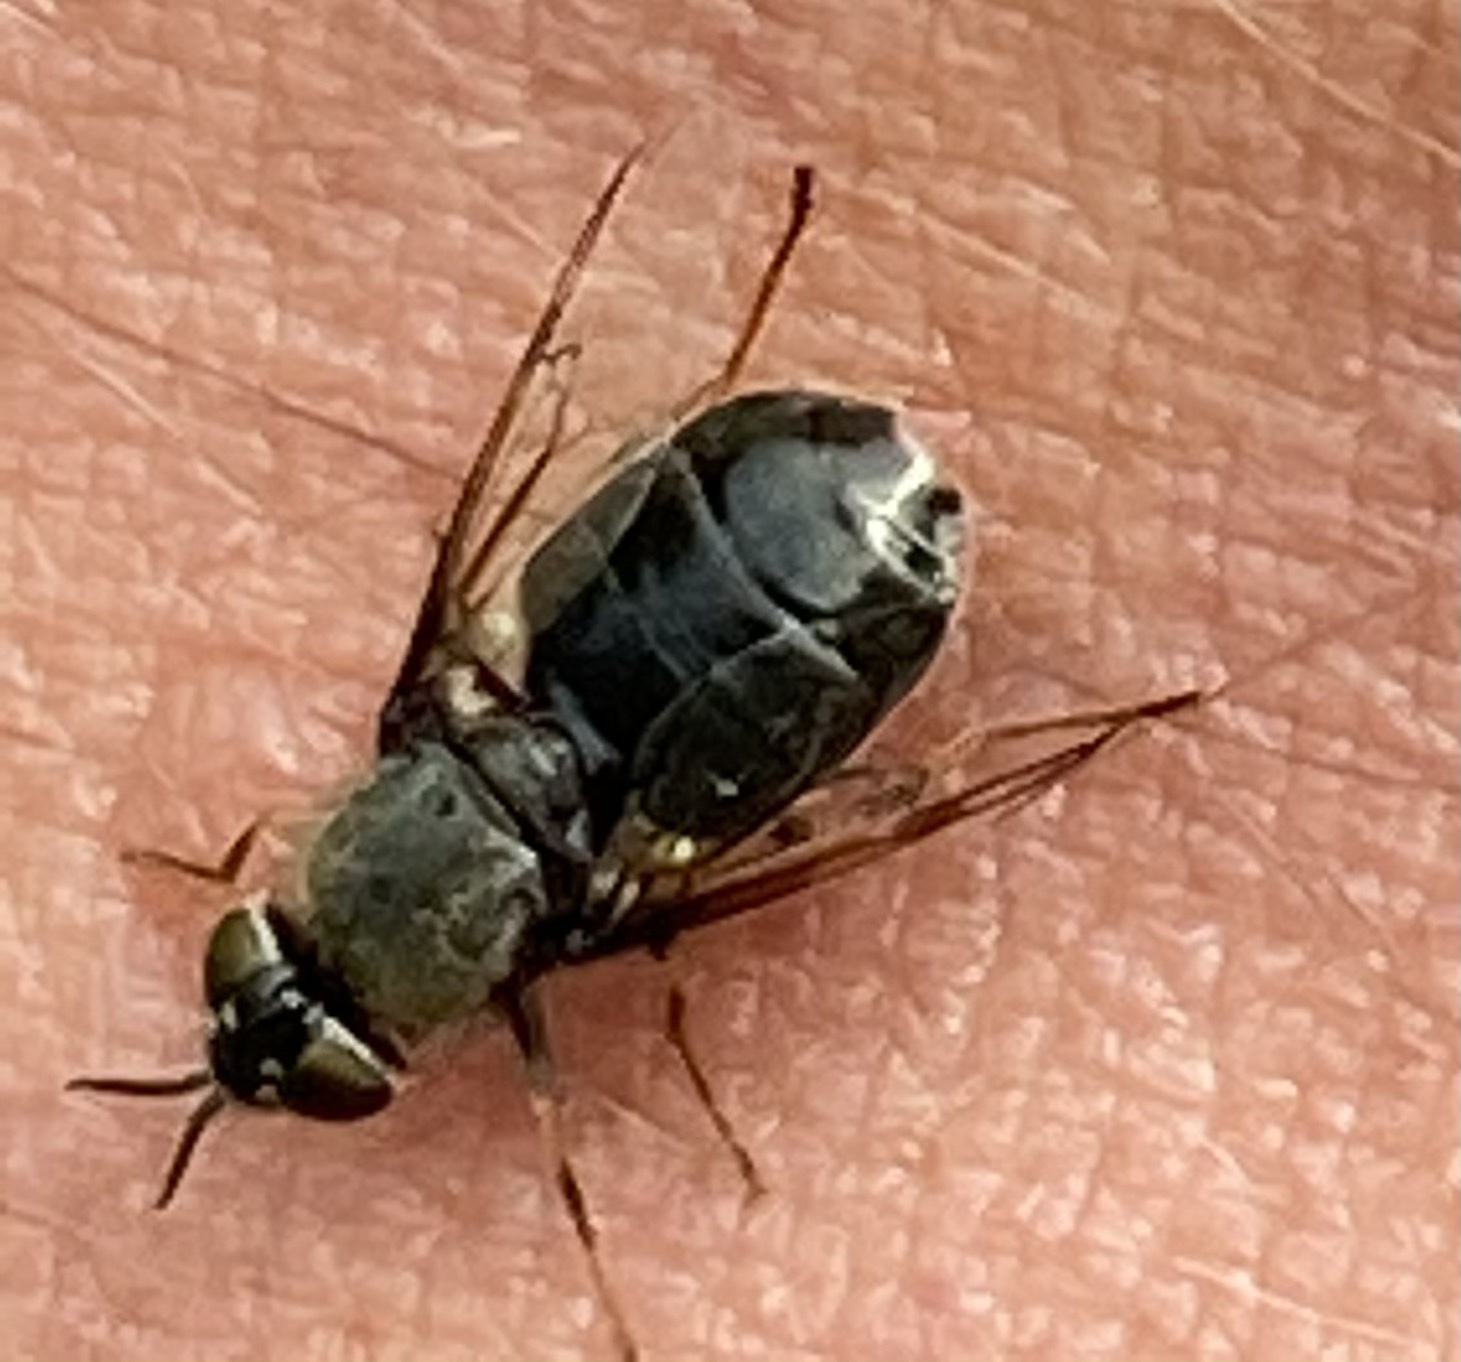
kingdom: Animalia
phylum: Arthropoda
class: Insecta
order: Diptera
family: Stratiomyidae
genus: Odontomyia
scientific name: Odontomyia tigrina
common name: Black colonel
